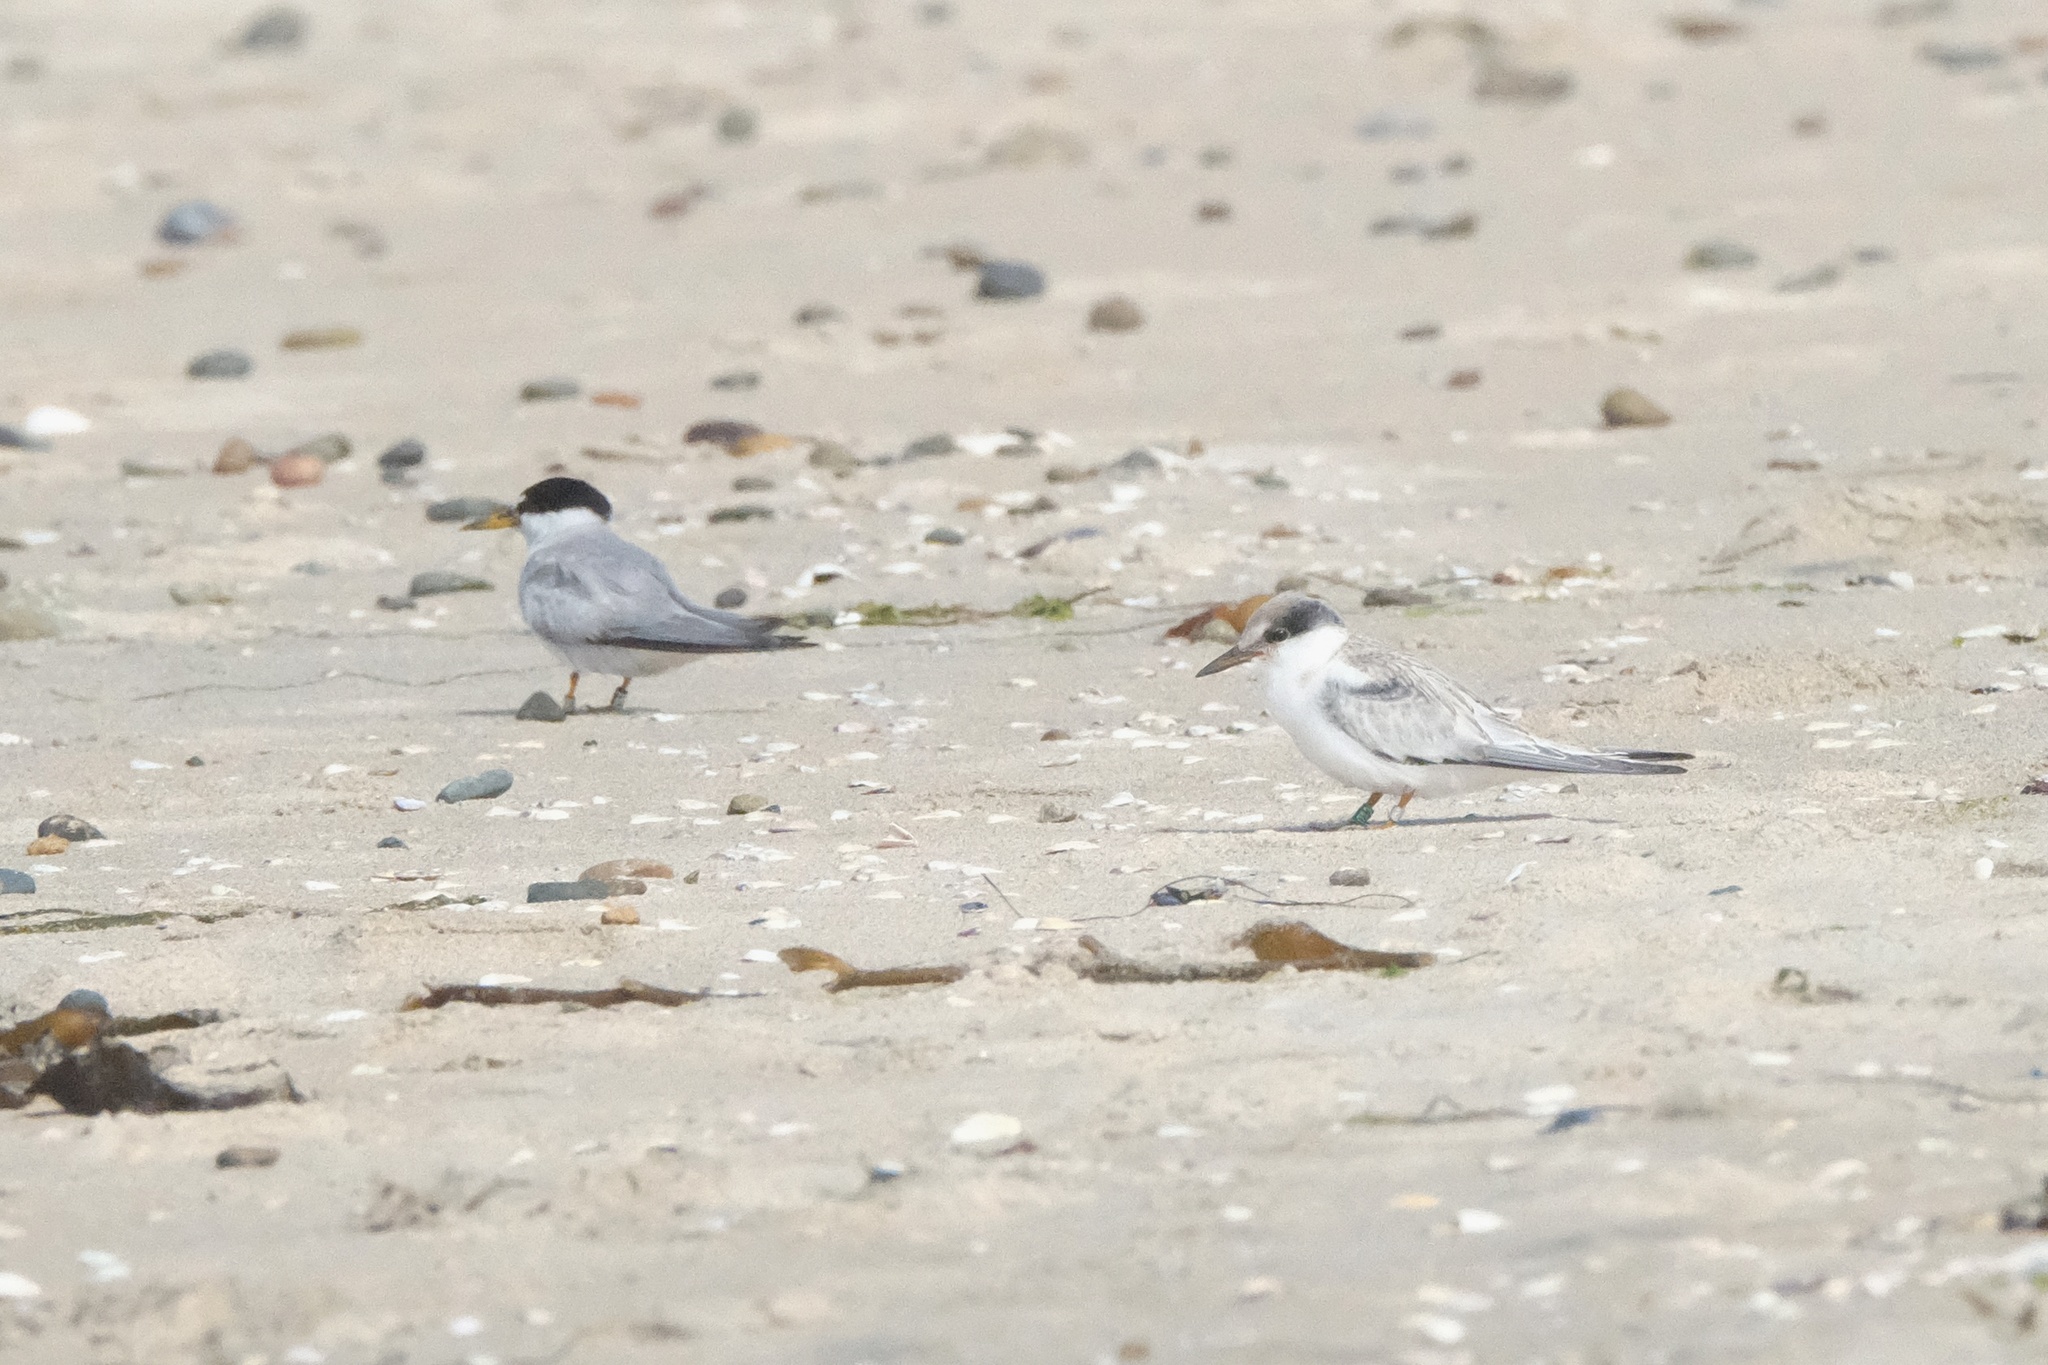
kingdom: Animalia
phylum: Chordata
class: Aves
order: Charadriiformes
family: Laridae
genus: Sternula
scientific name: Sternula antillarum
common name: Least tern
